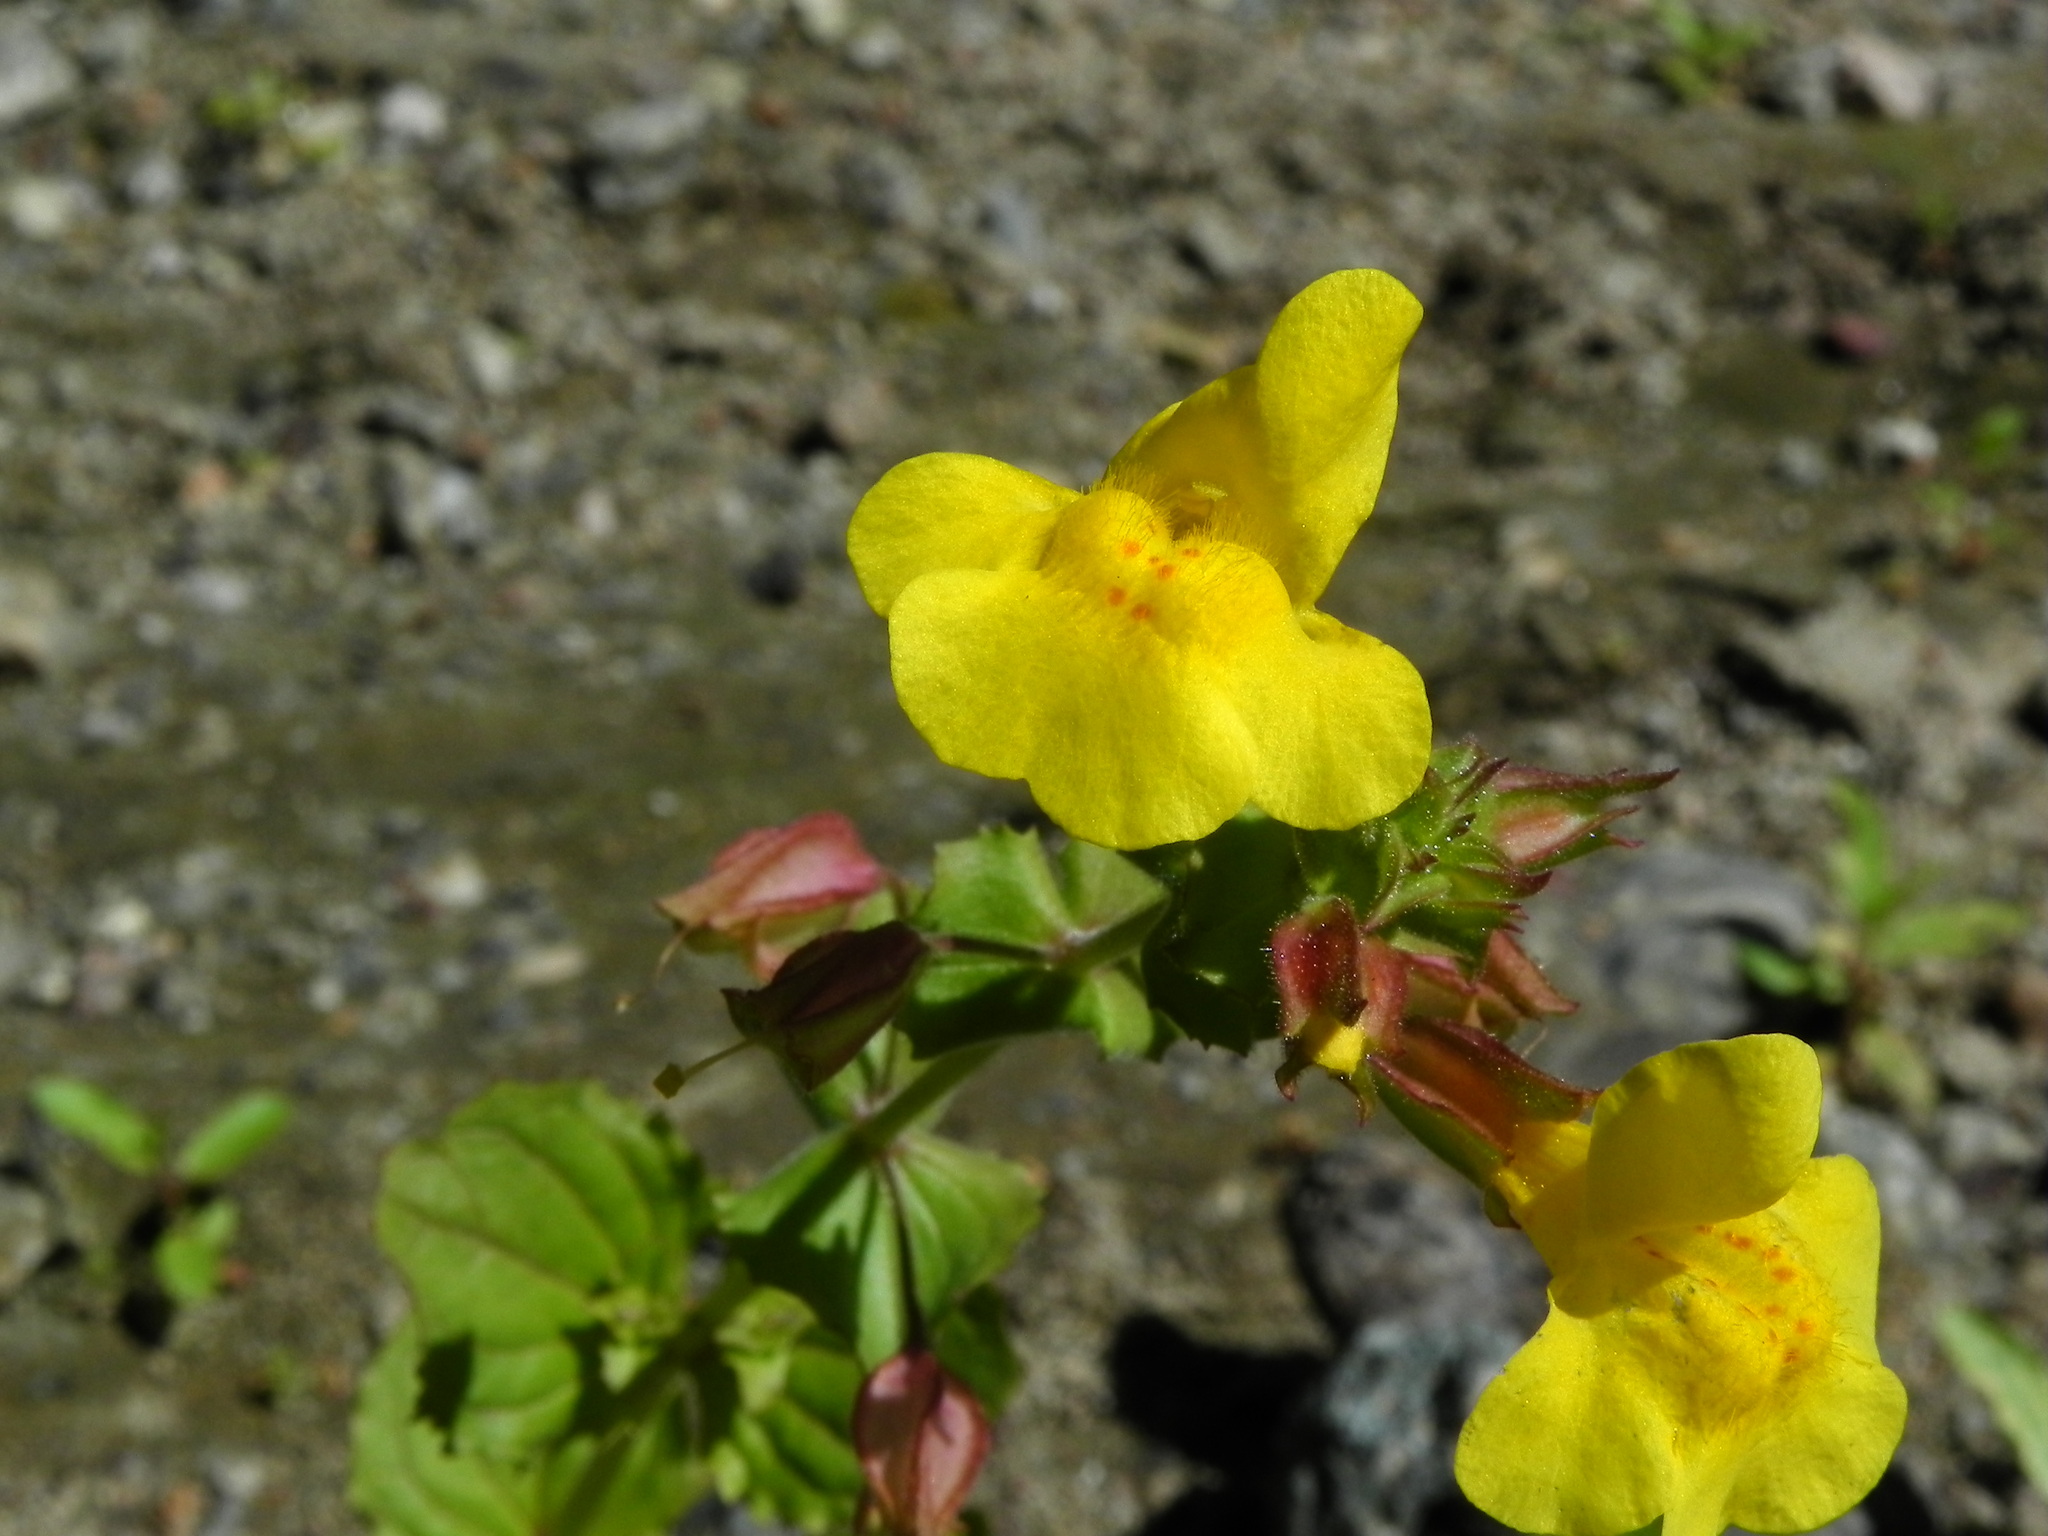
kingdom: Plantae
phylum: Tracheophyta
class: Magnoliopsida
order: Lamiales
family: Phrymaceae
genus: Erythranthe
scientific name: Erythranthe guttata
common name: Monkeyflower
